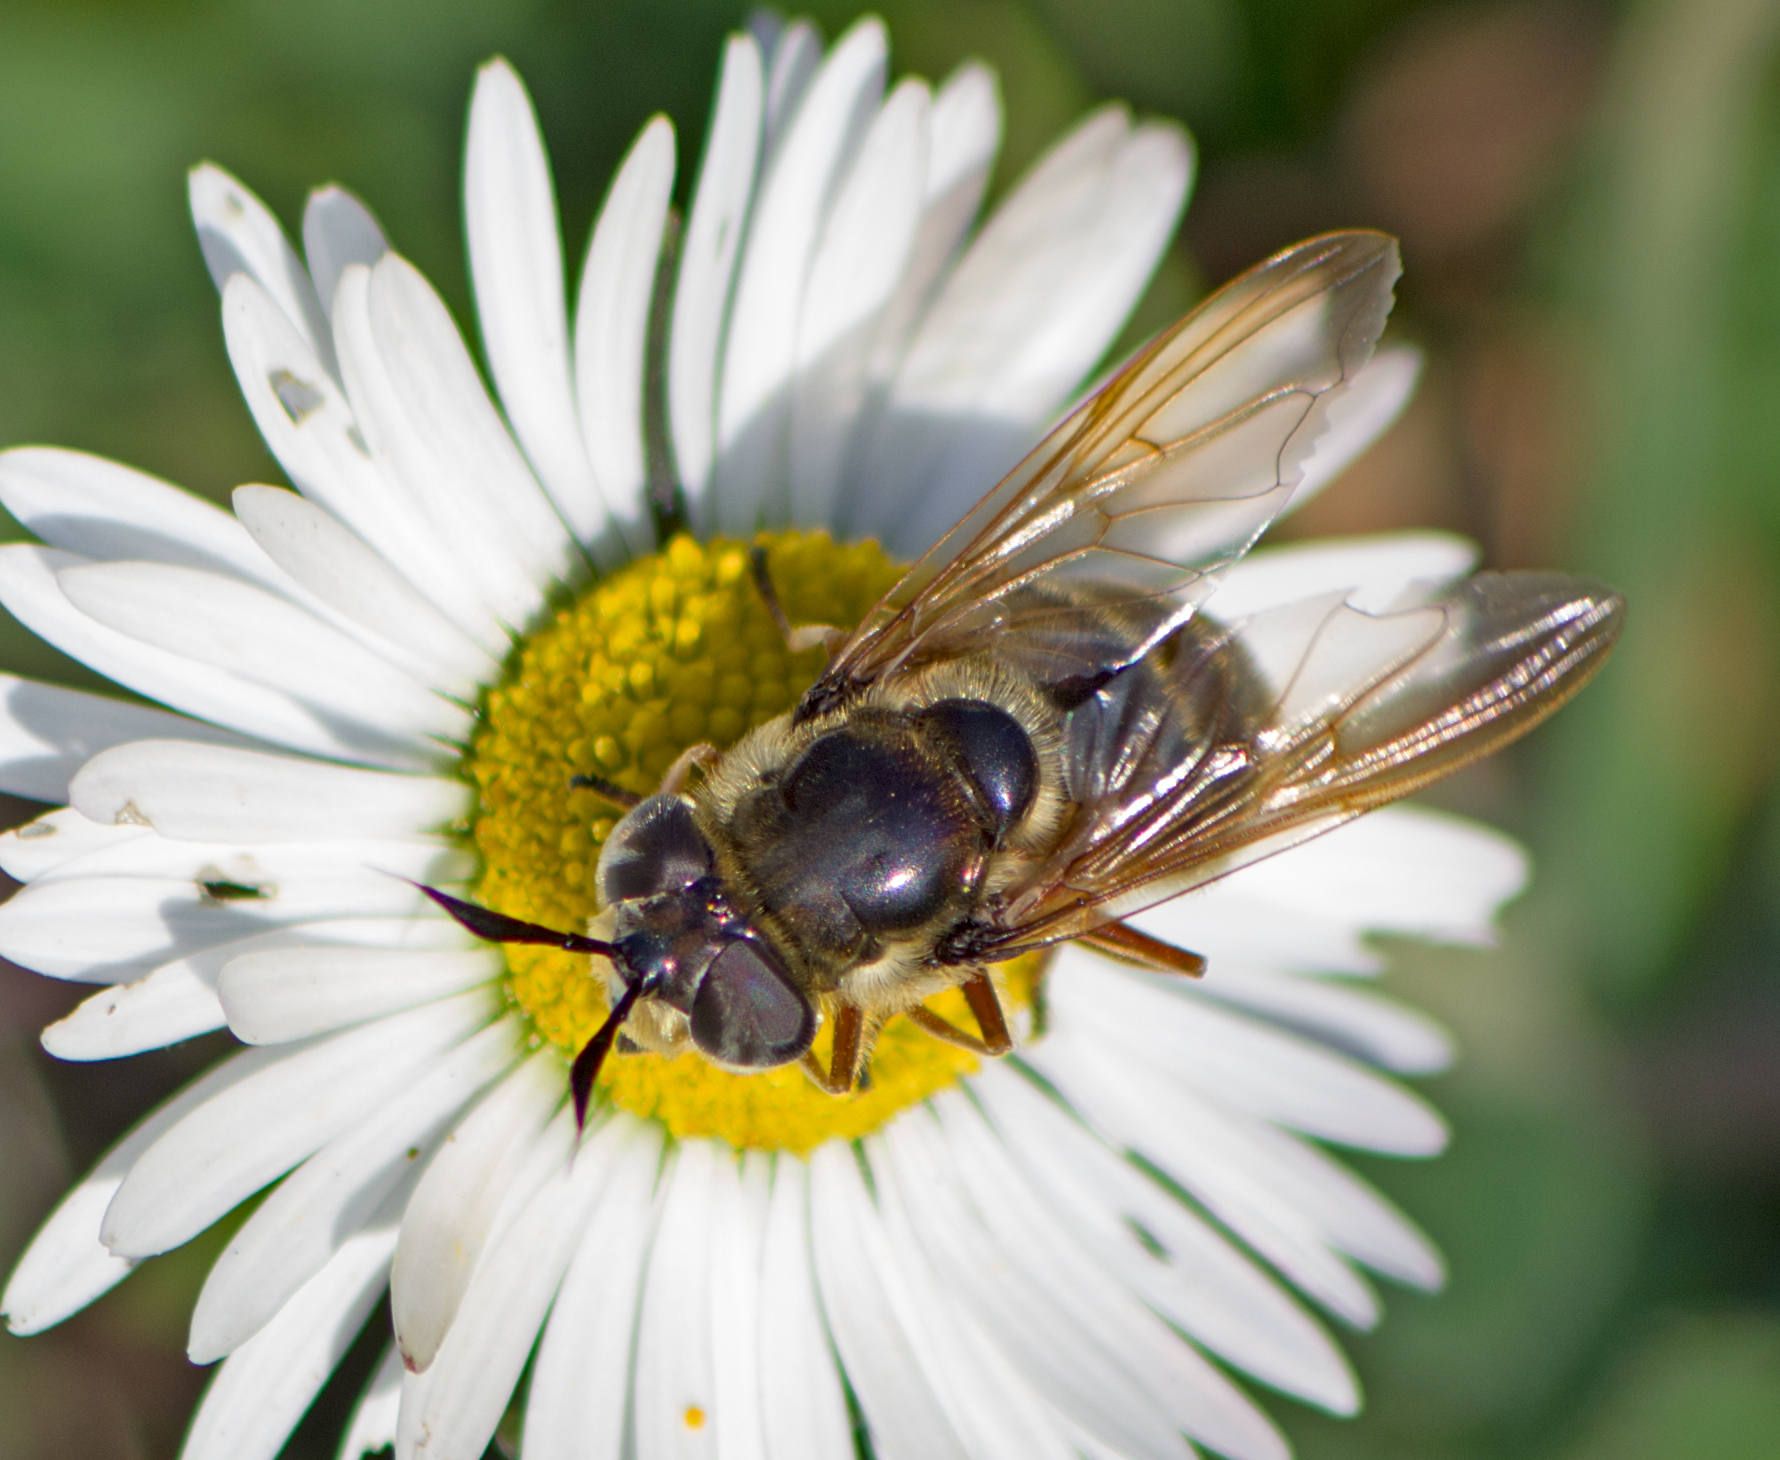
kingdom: Animalia
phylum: Arthropoda
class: Insecta
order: Diptera
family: Syrphidae
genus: Callicera
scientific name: Callicera spinolae
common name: Golden hoverfly
